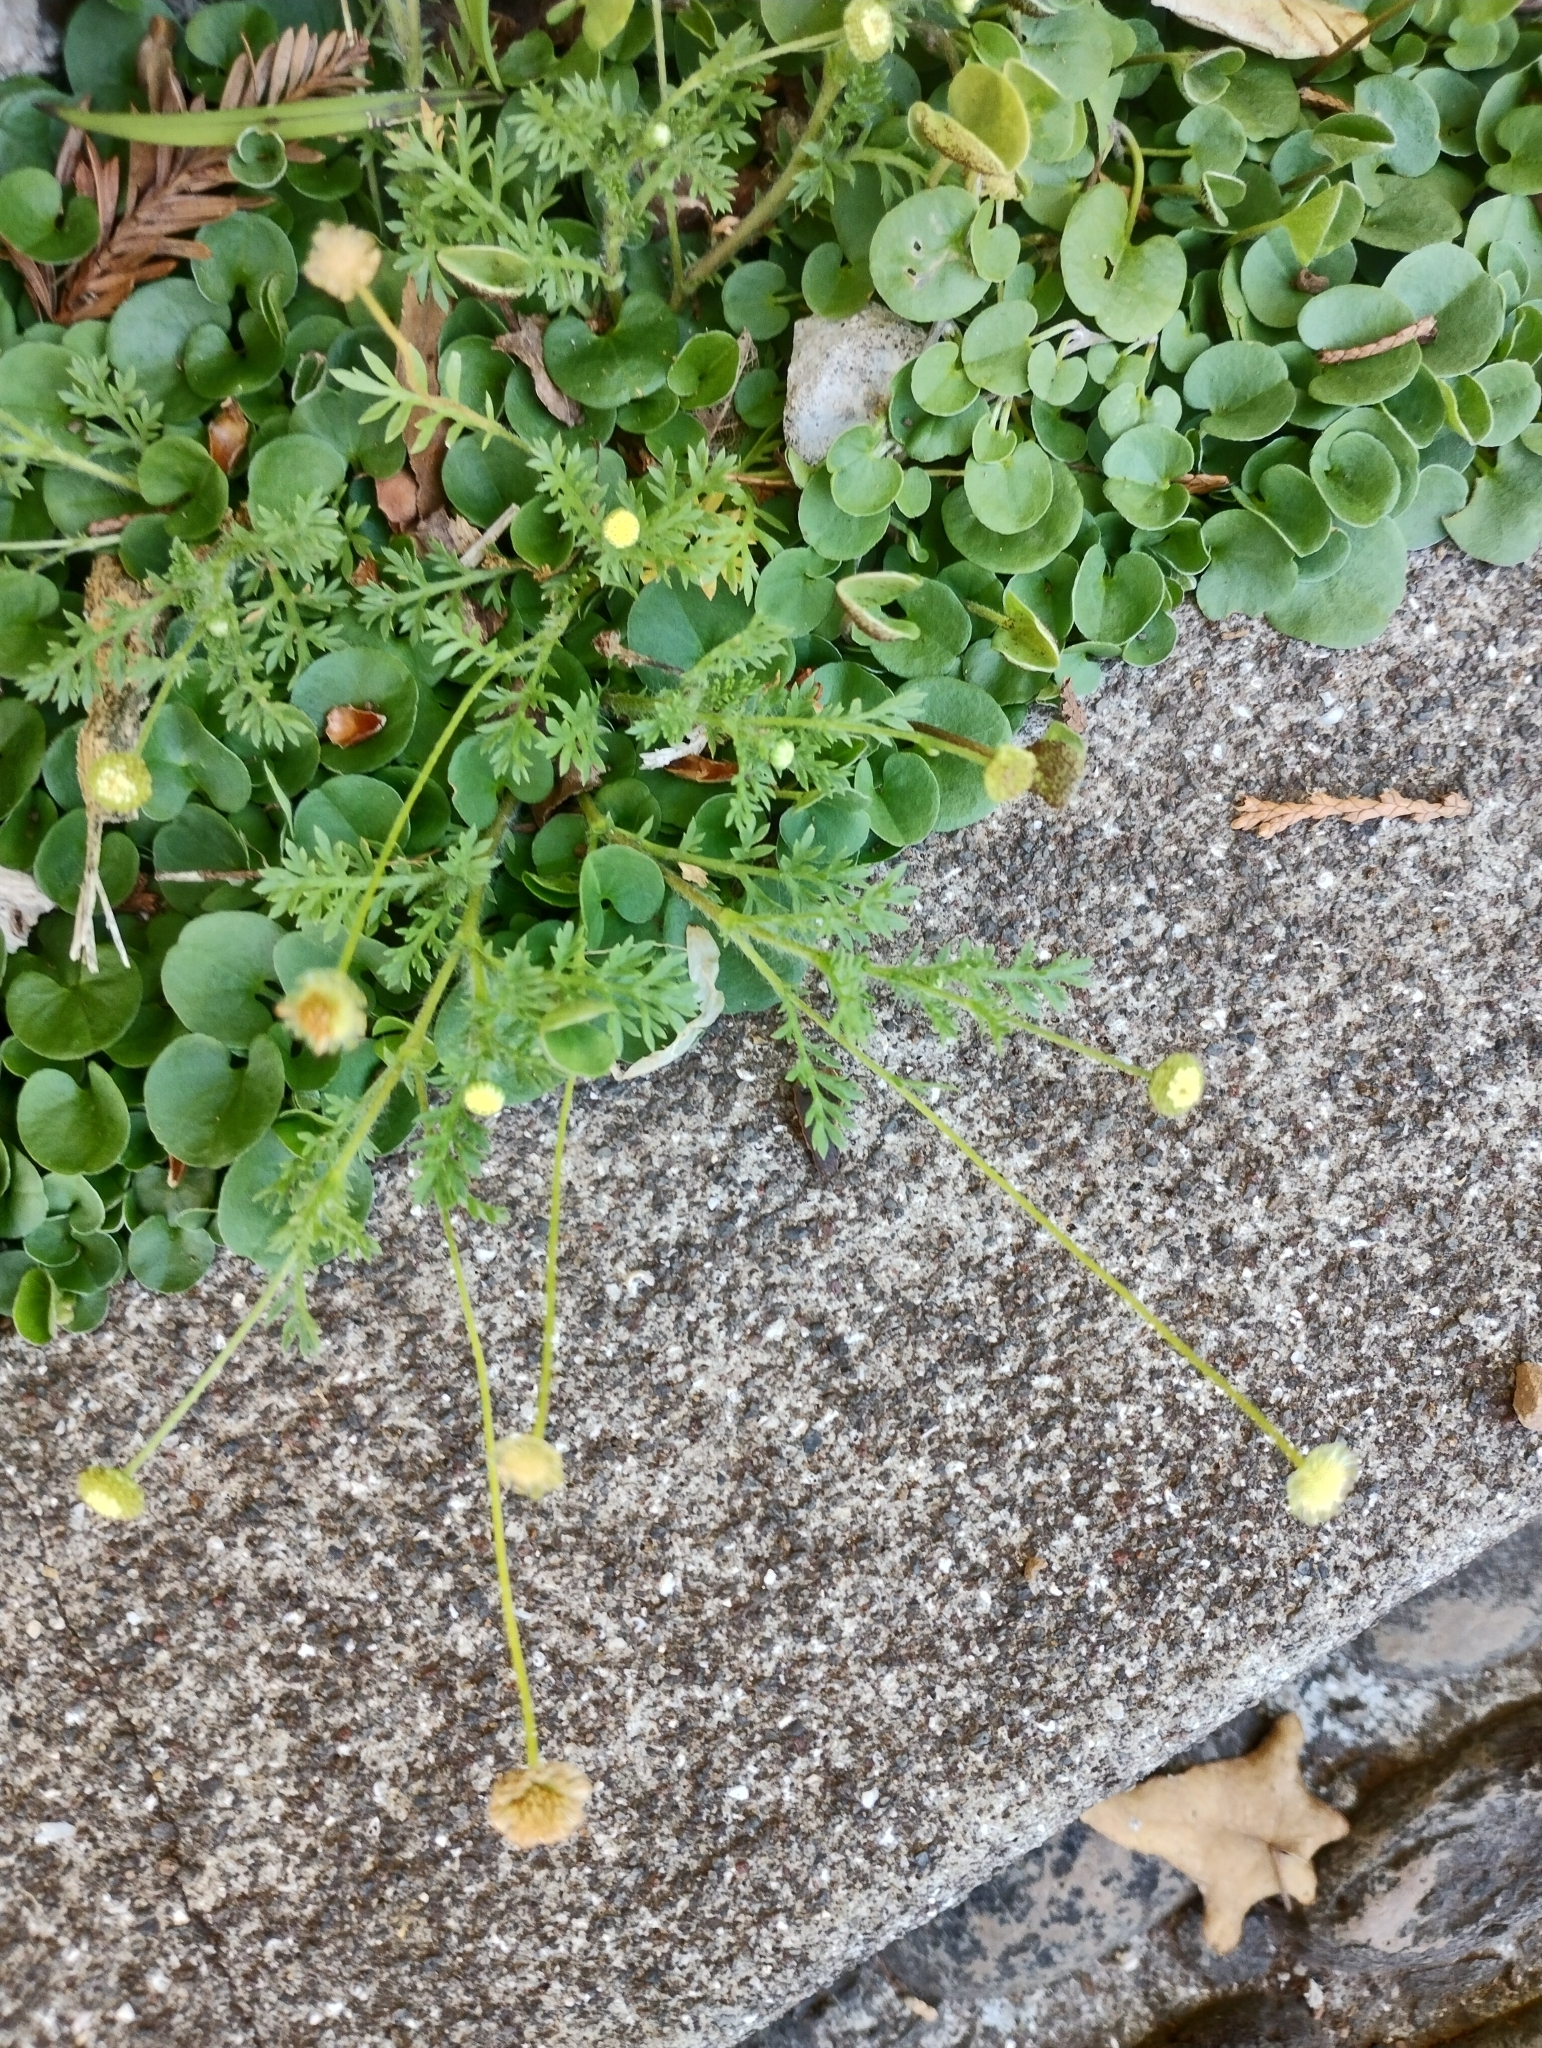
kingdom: Plantae
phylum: Tracheophyta
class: Magnoliopsida
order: Asterales
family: Asteraceae
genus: Cotula
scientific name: Cotula australis
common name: Australian waterbuttons
